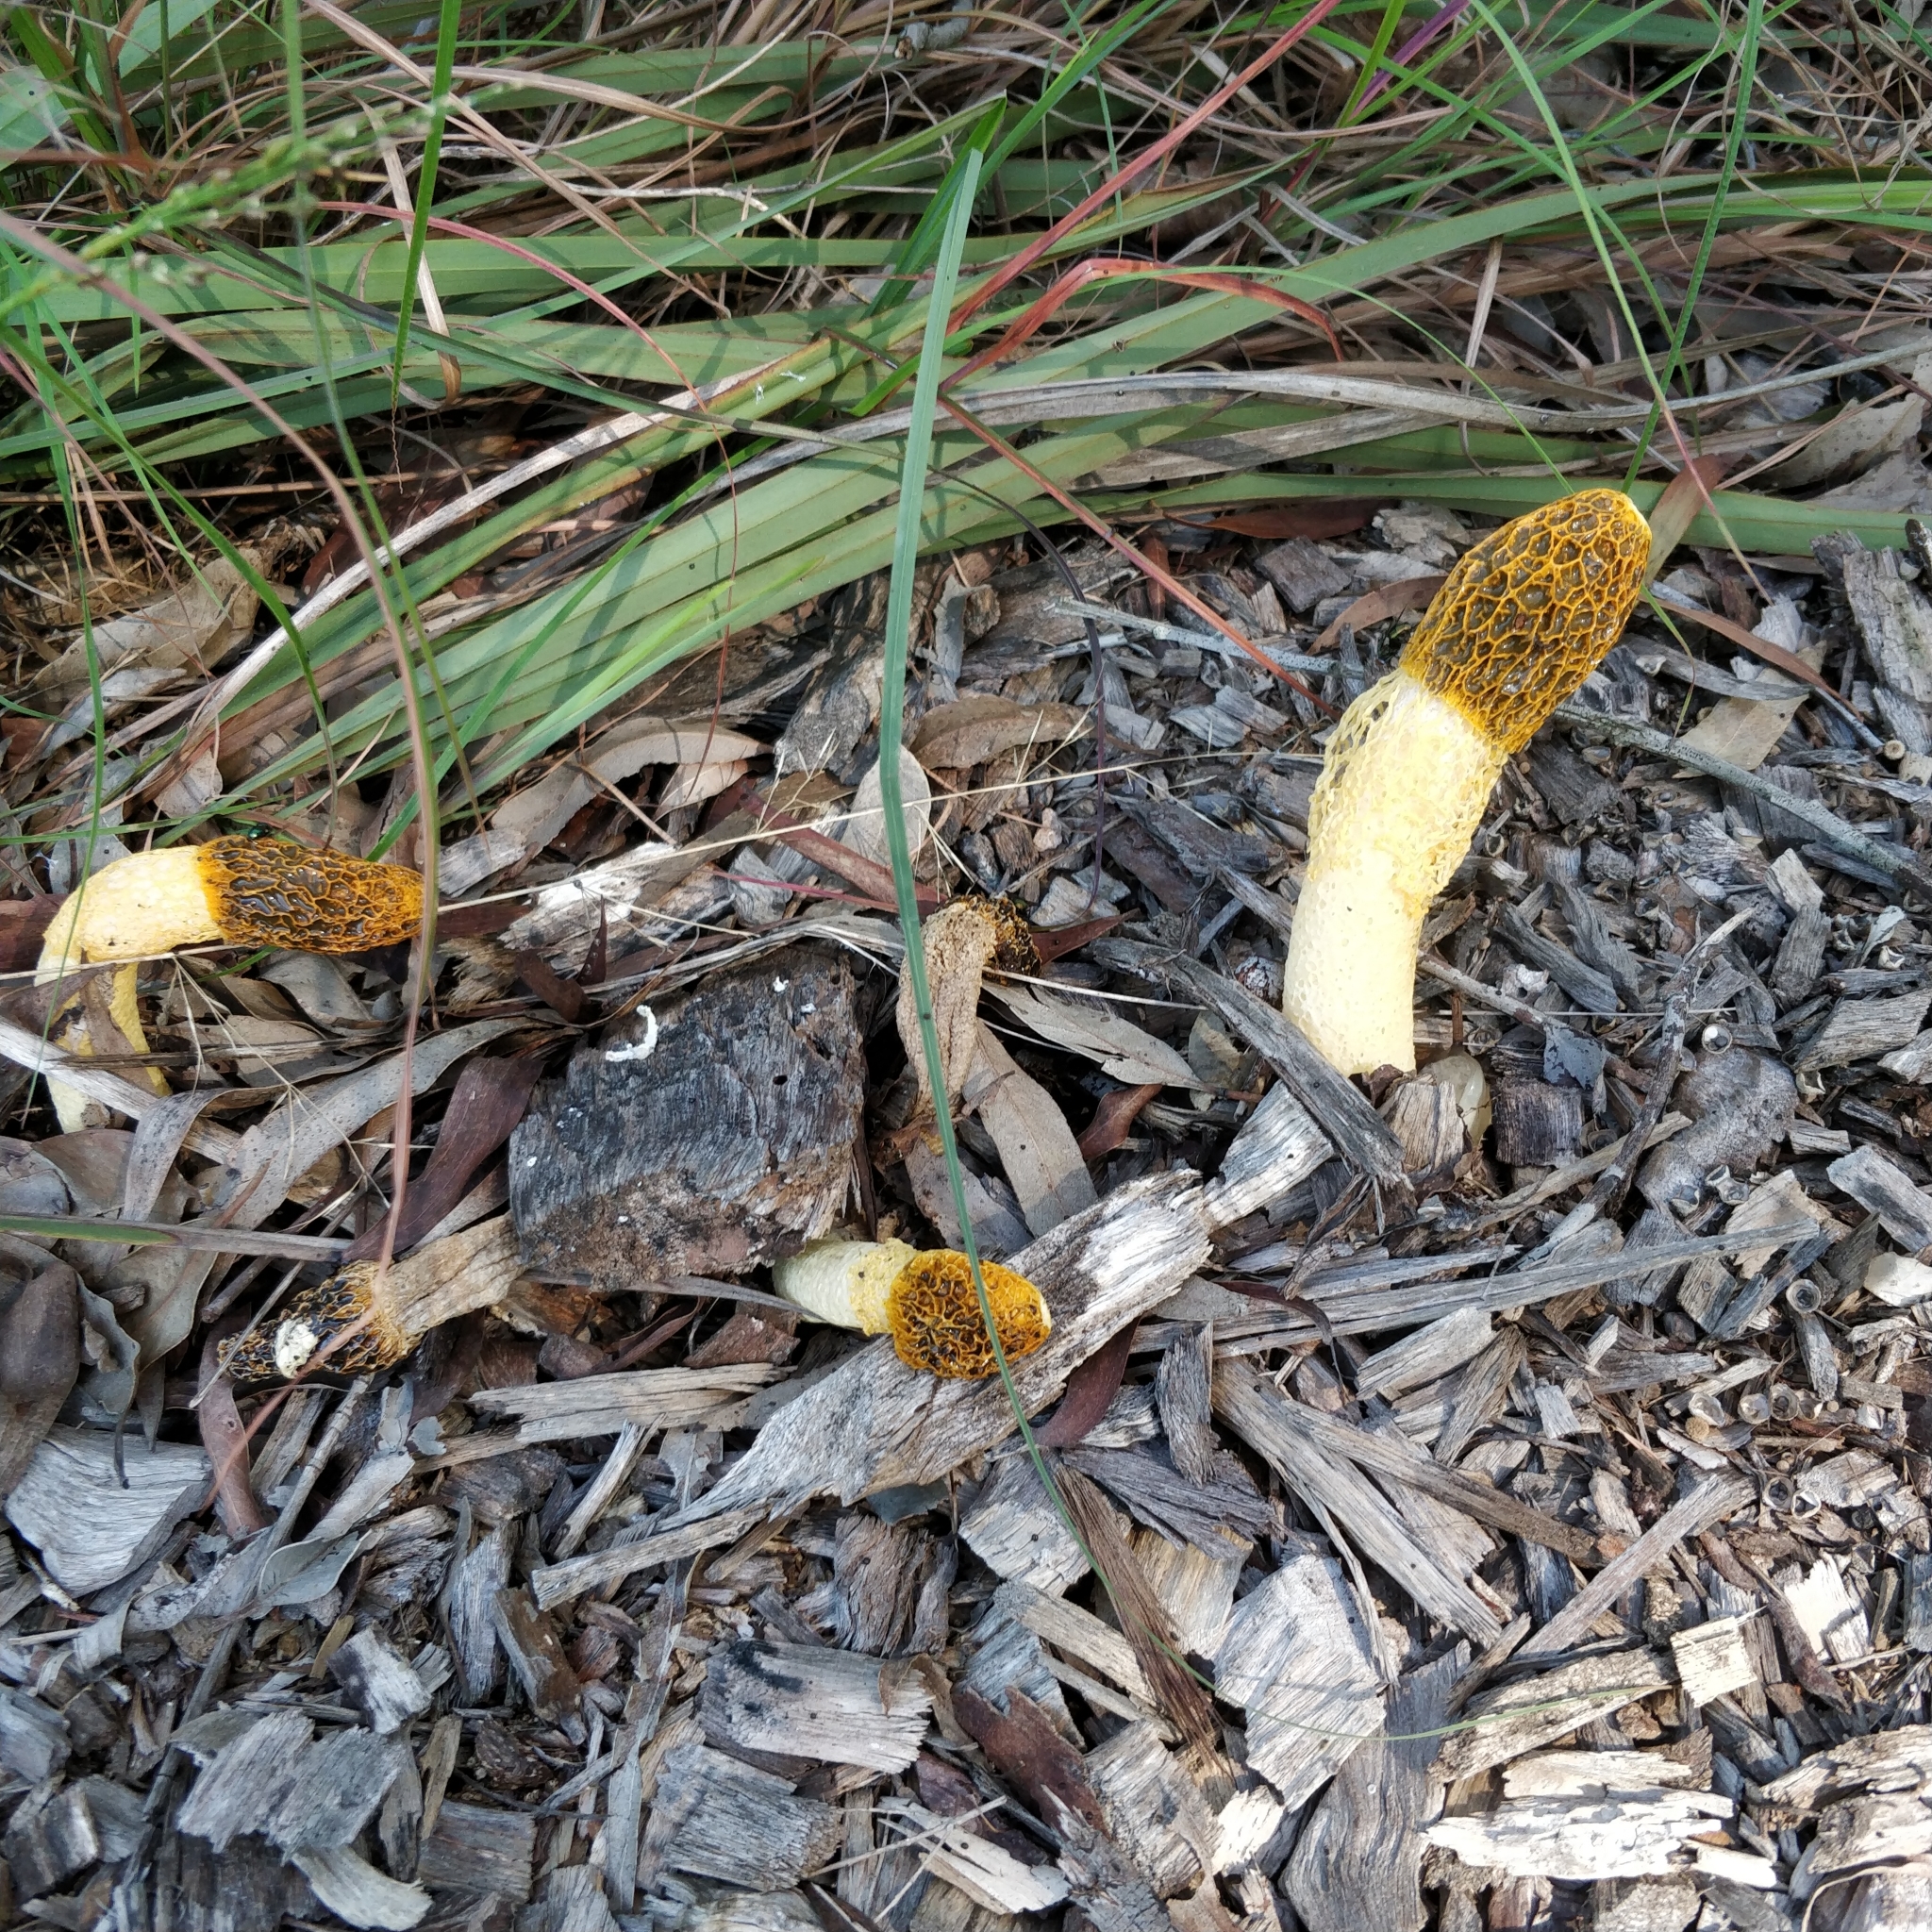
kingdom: Fungi
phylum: Basidiomycota
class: Agaricomycetes
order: Phallales
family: Phallaceae
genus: Phallus
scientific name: Phallus multicolor
